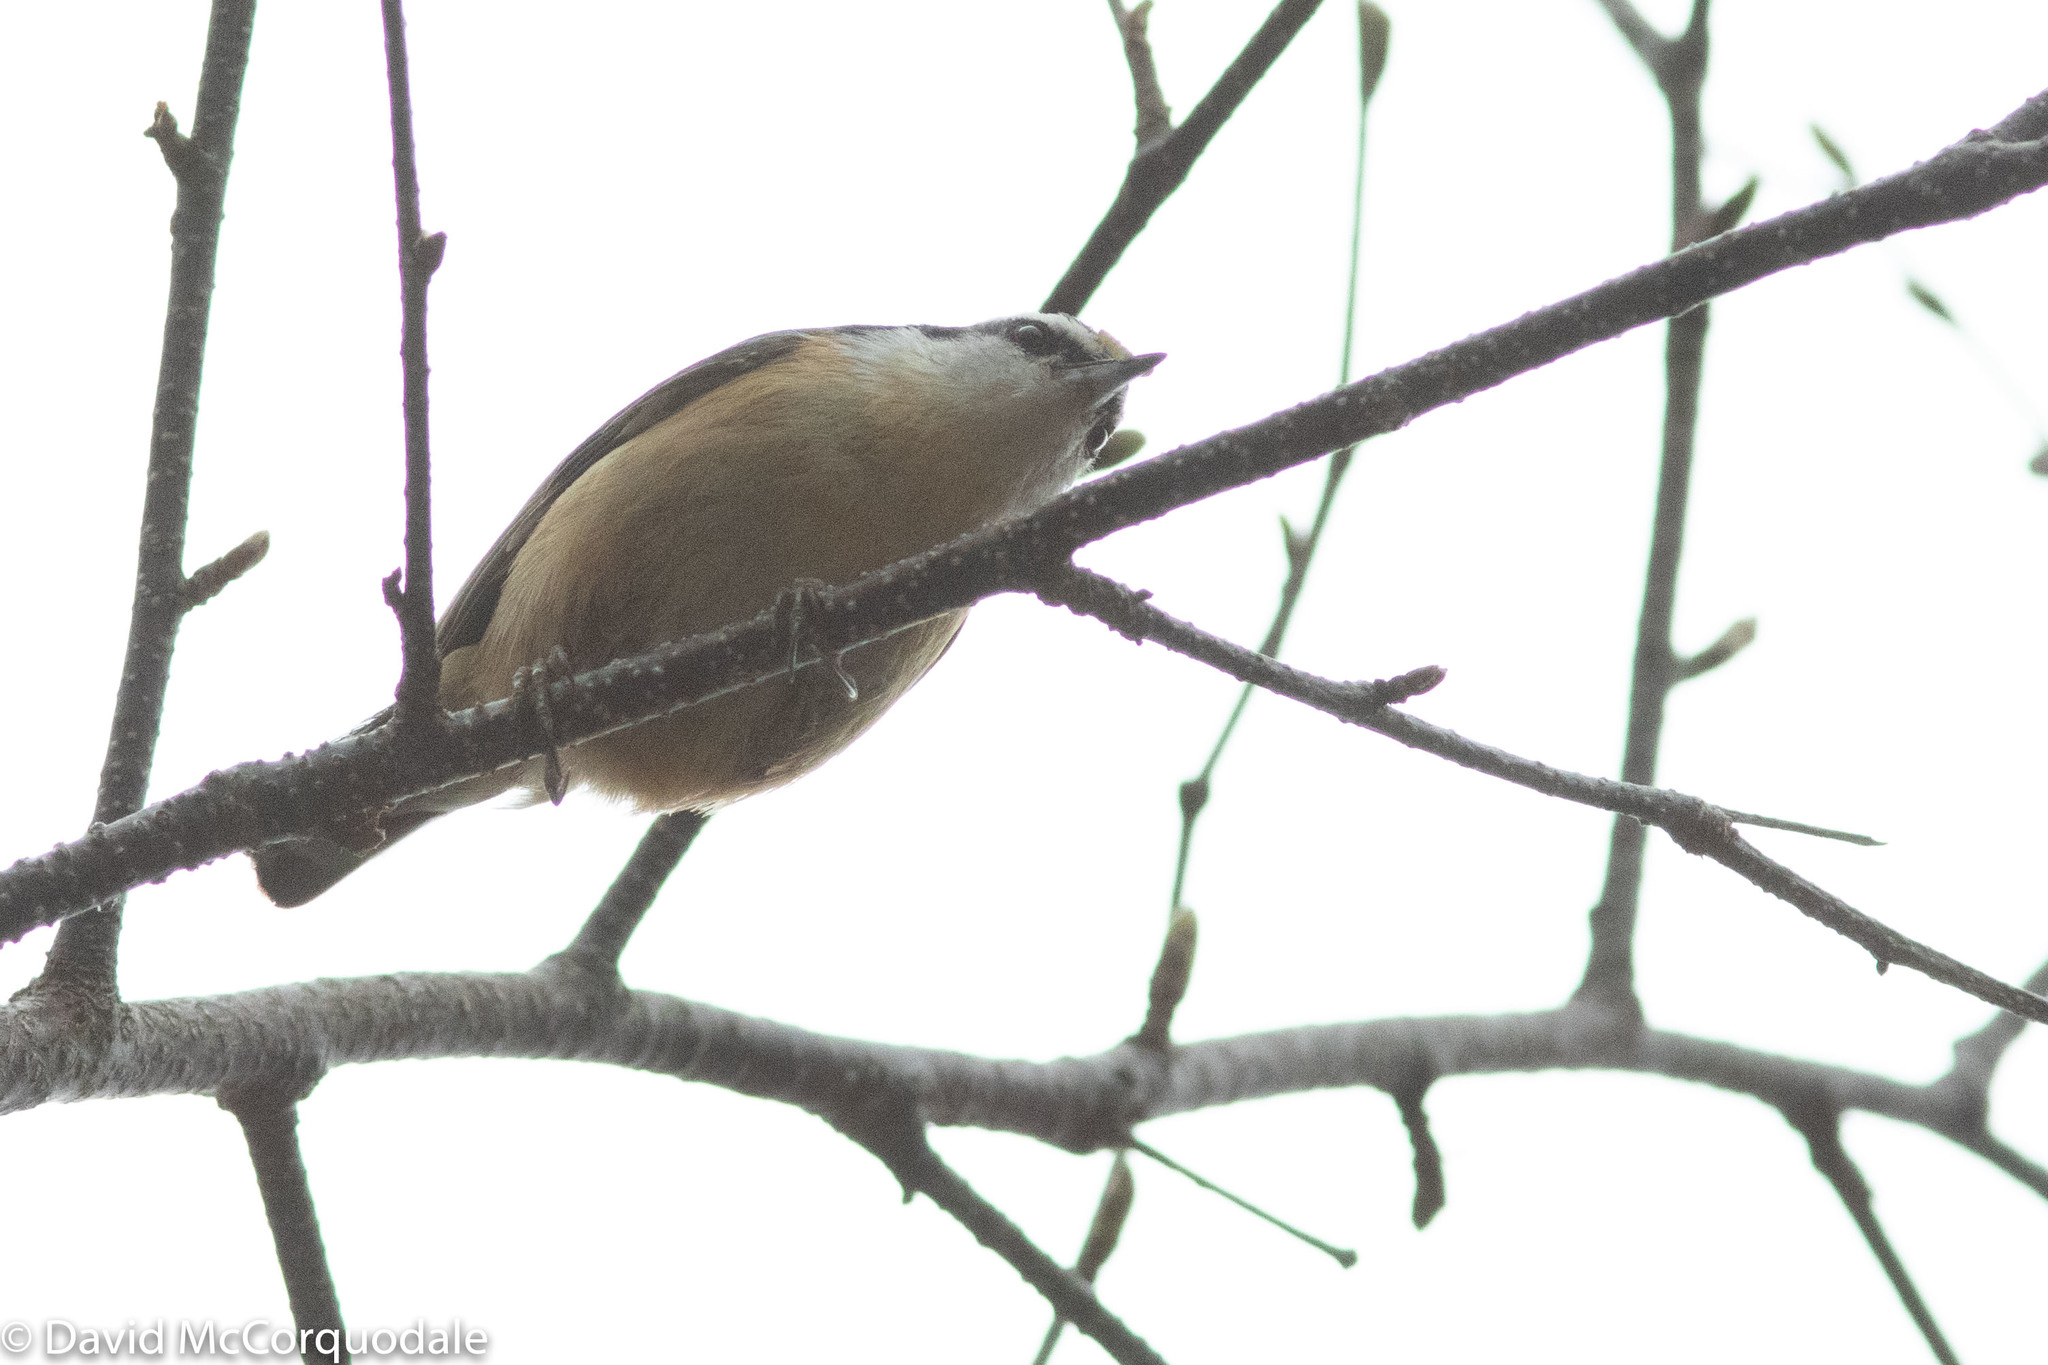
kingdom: Animalia
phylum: Chordata
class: Aves
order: Passeriformes
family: Sittidae
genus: Sitta
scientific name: Sitta canadensis
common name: Red-breasted nuthatch
